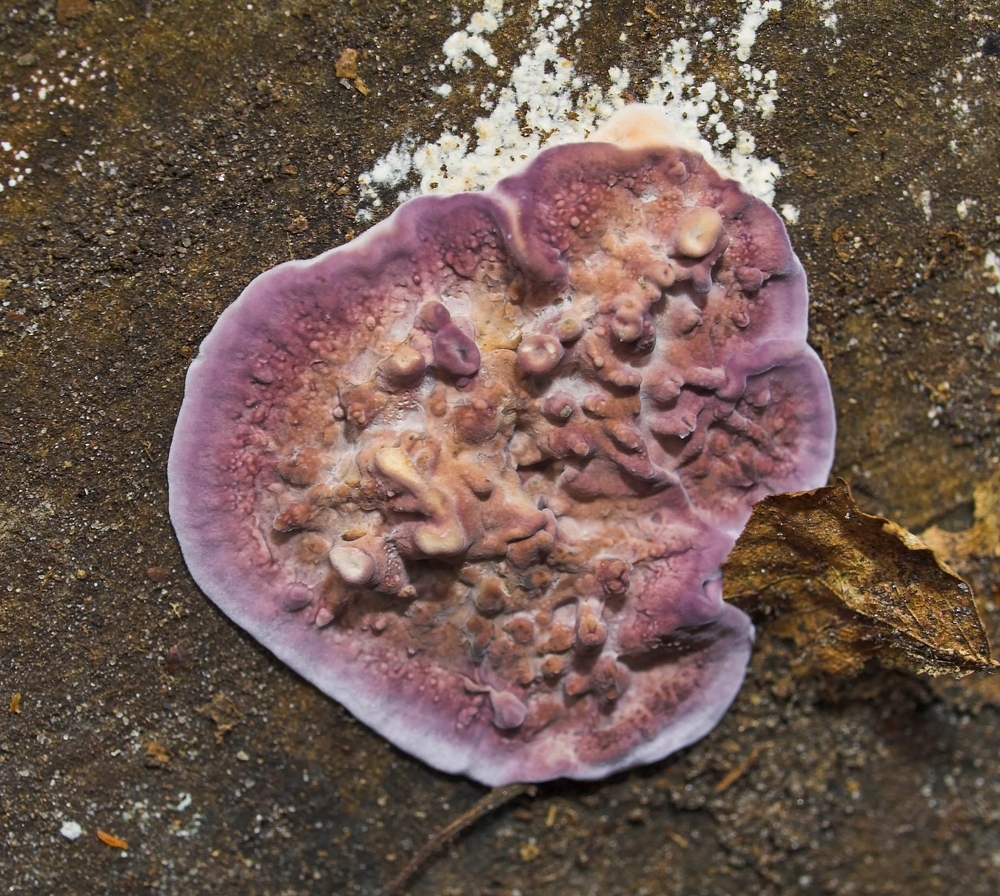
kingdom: Fungi
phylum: Basidiomycota
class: Agaricomycetes
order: Agaricales
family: Cyphellaceae
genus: Chondrostereum
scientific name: Chondrostereum purpureum
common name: Silver leaf disease
